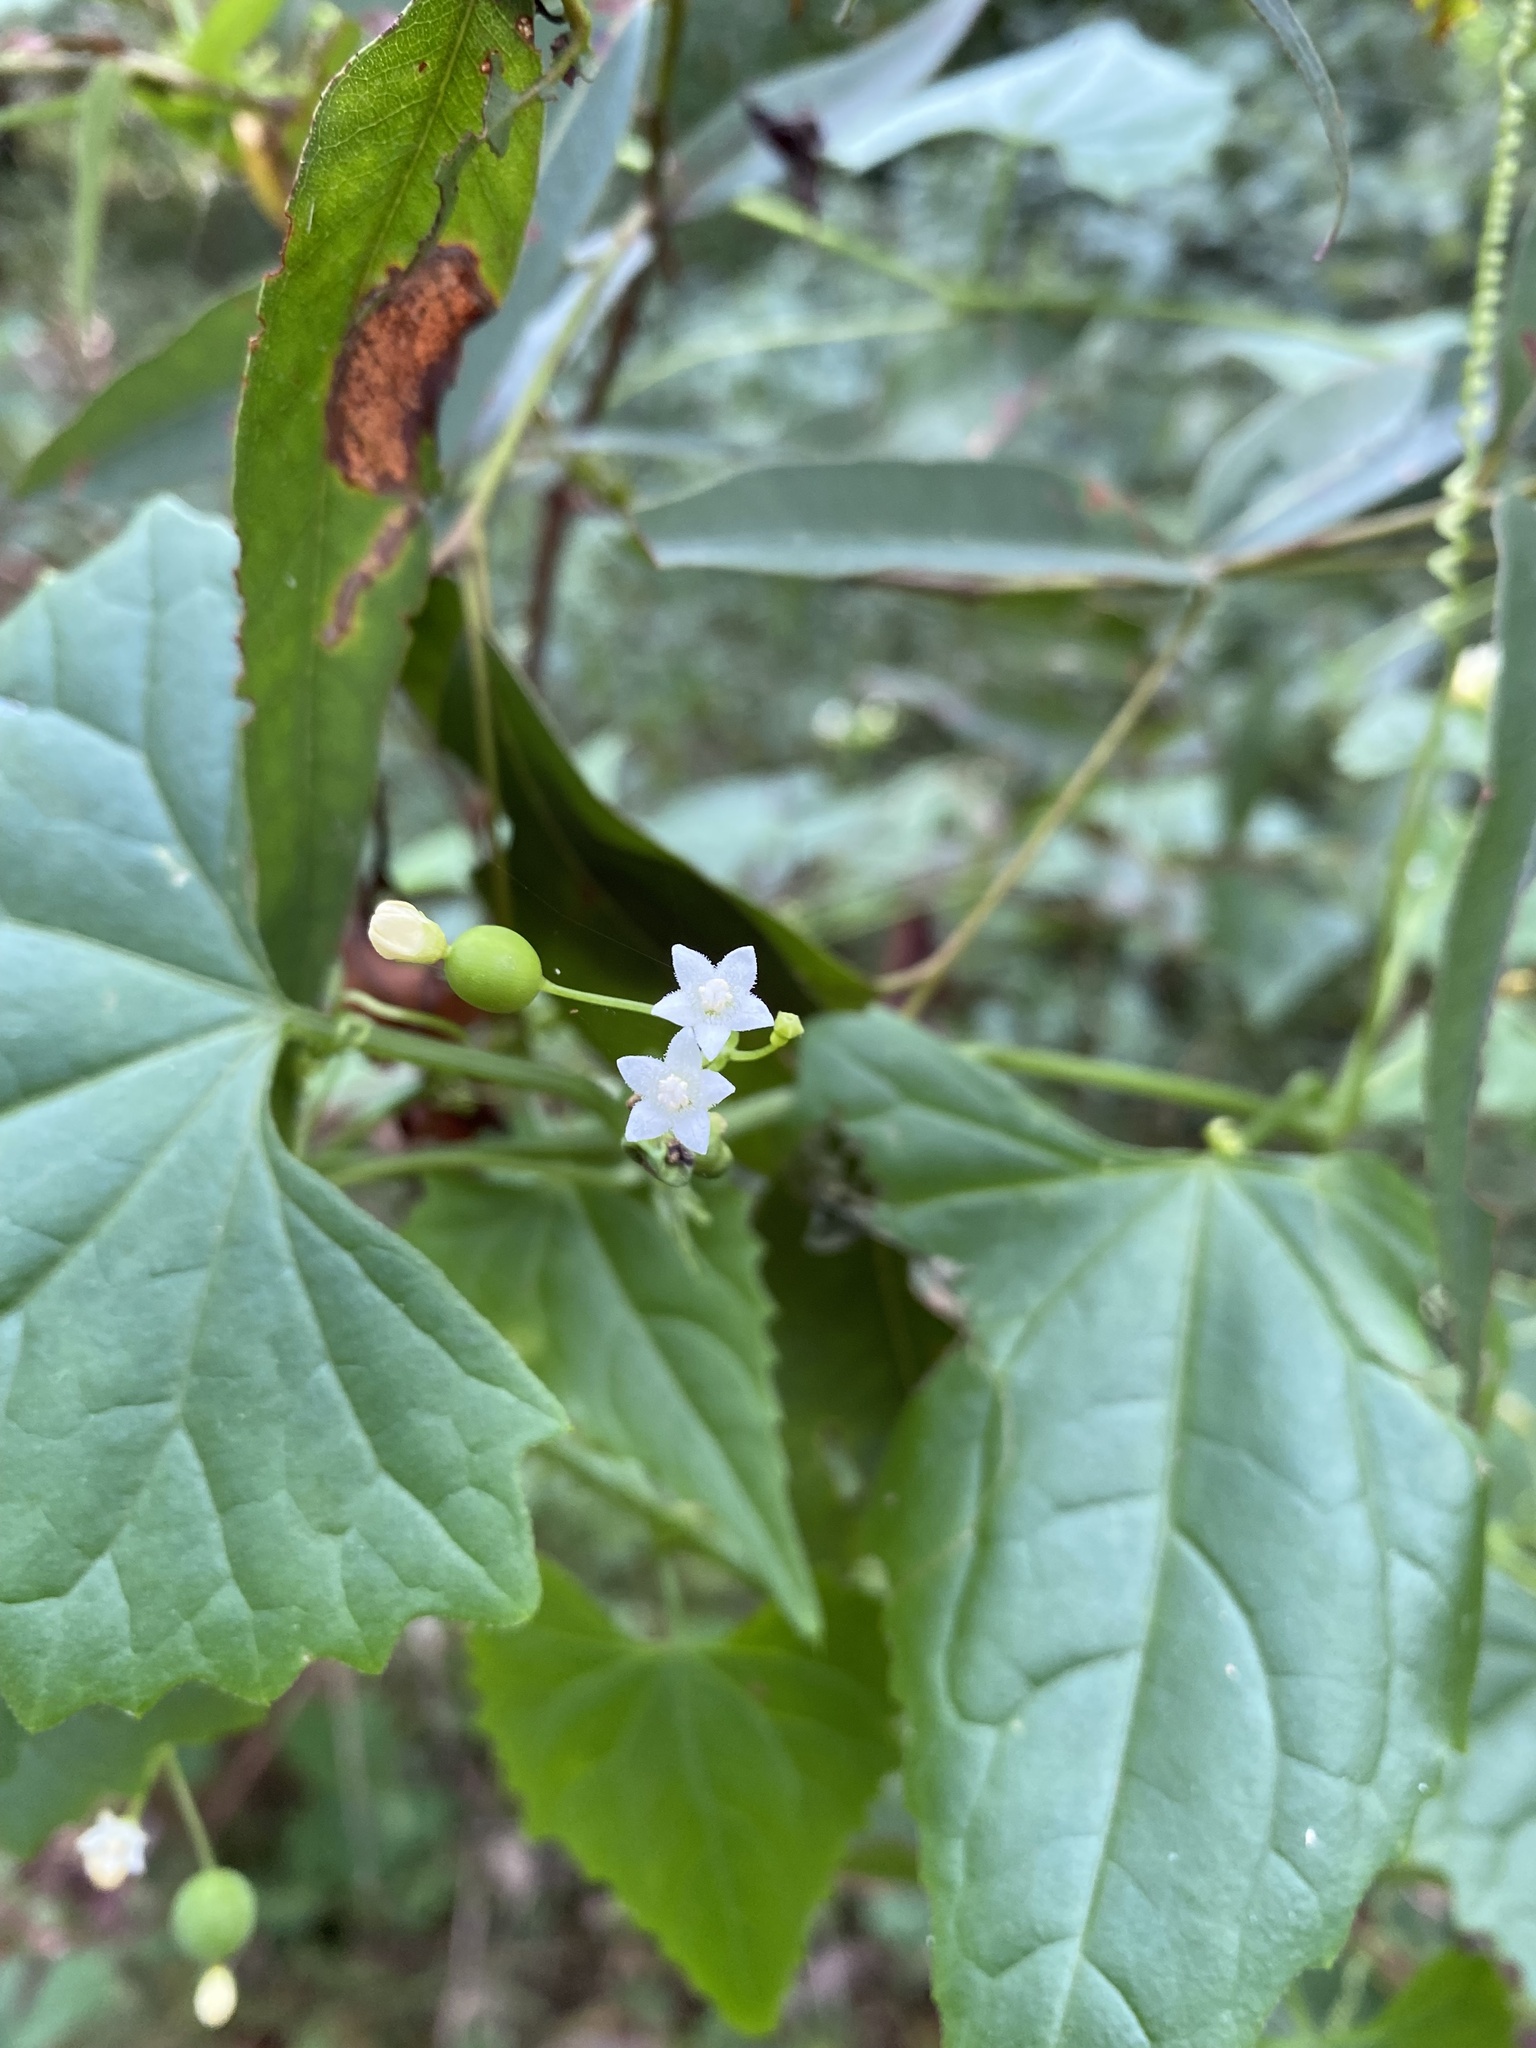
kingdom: Plantae
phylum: Tracheophyta
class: Magnoliopsida
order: Cucurbitales
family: Cucurbitaceae
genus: Zehneria
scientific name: Zehneria cunninghamii
